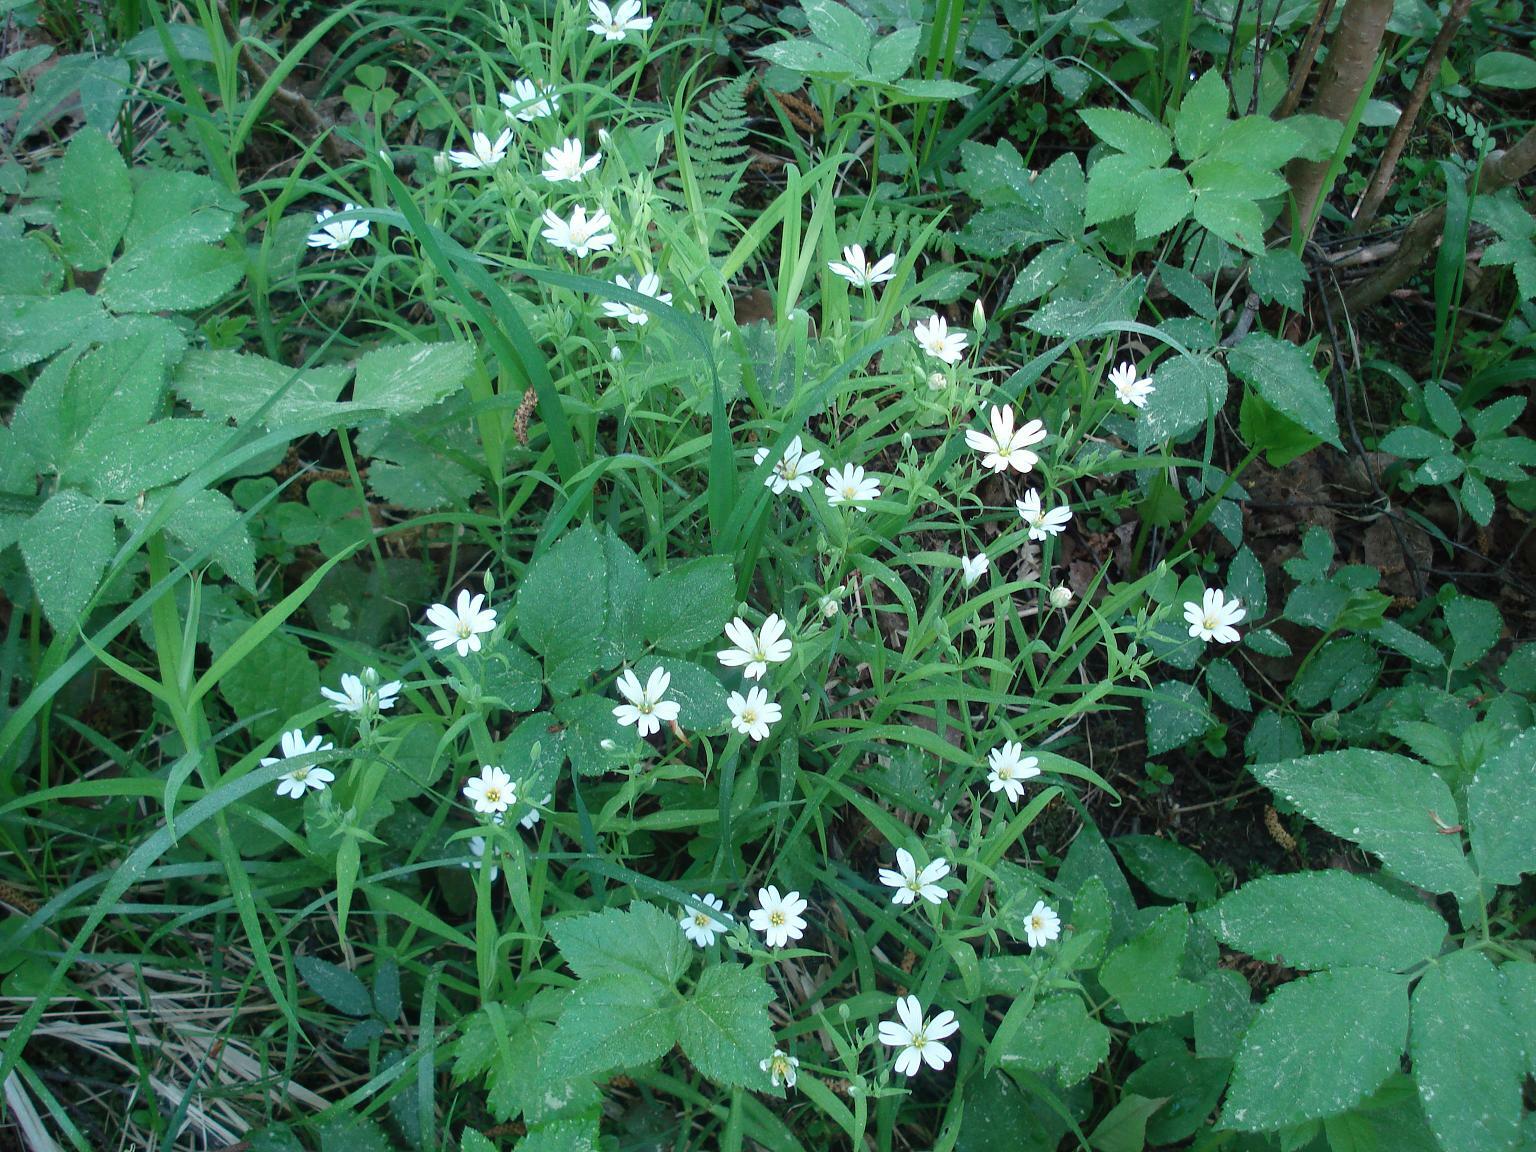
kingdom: Plantae
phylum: Tracheophyta
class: Magnoliopsida
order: Caryophyllales
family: Caryophyllaceae
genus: Rabelera
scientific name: Rabelera holostea
